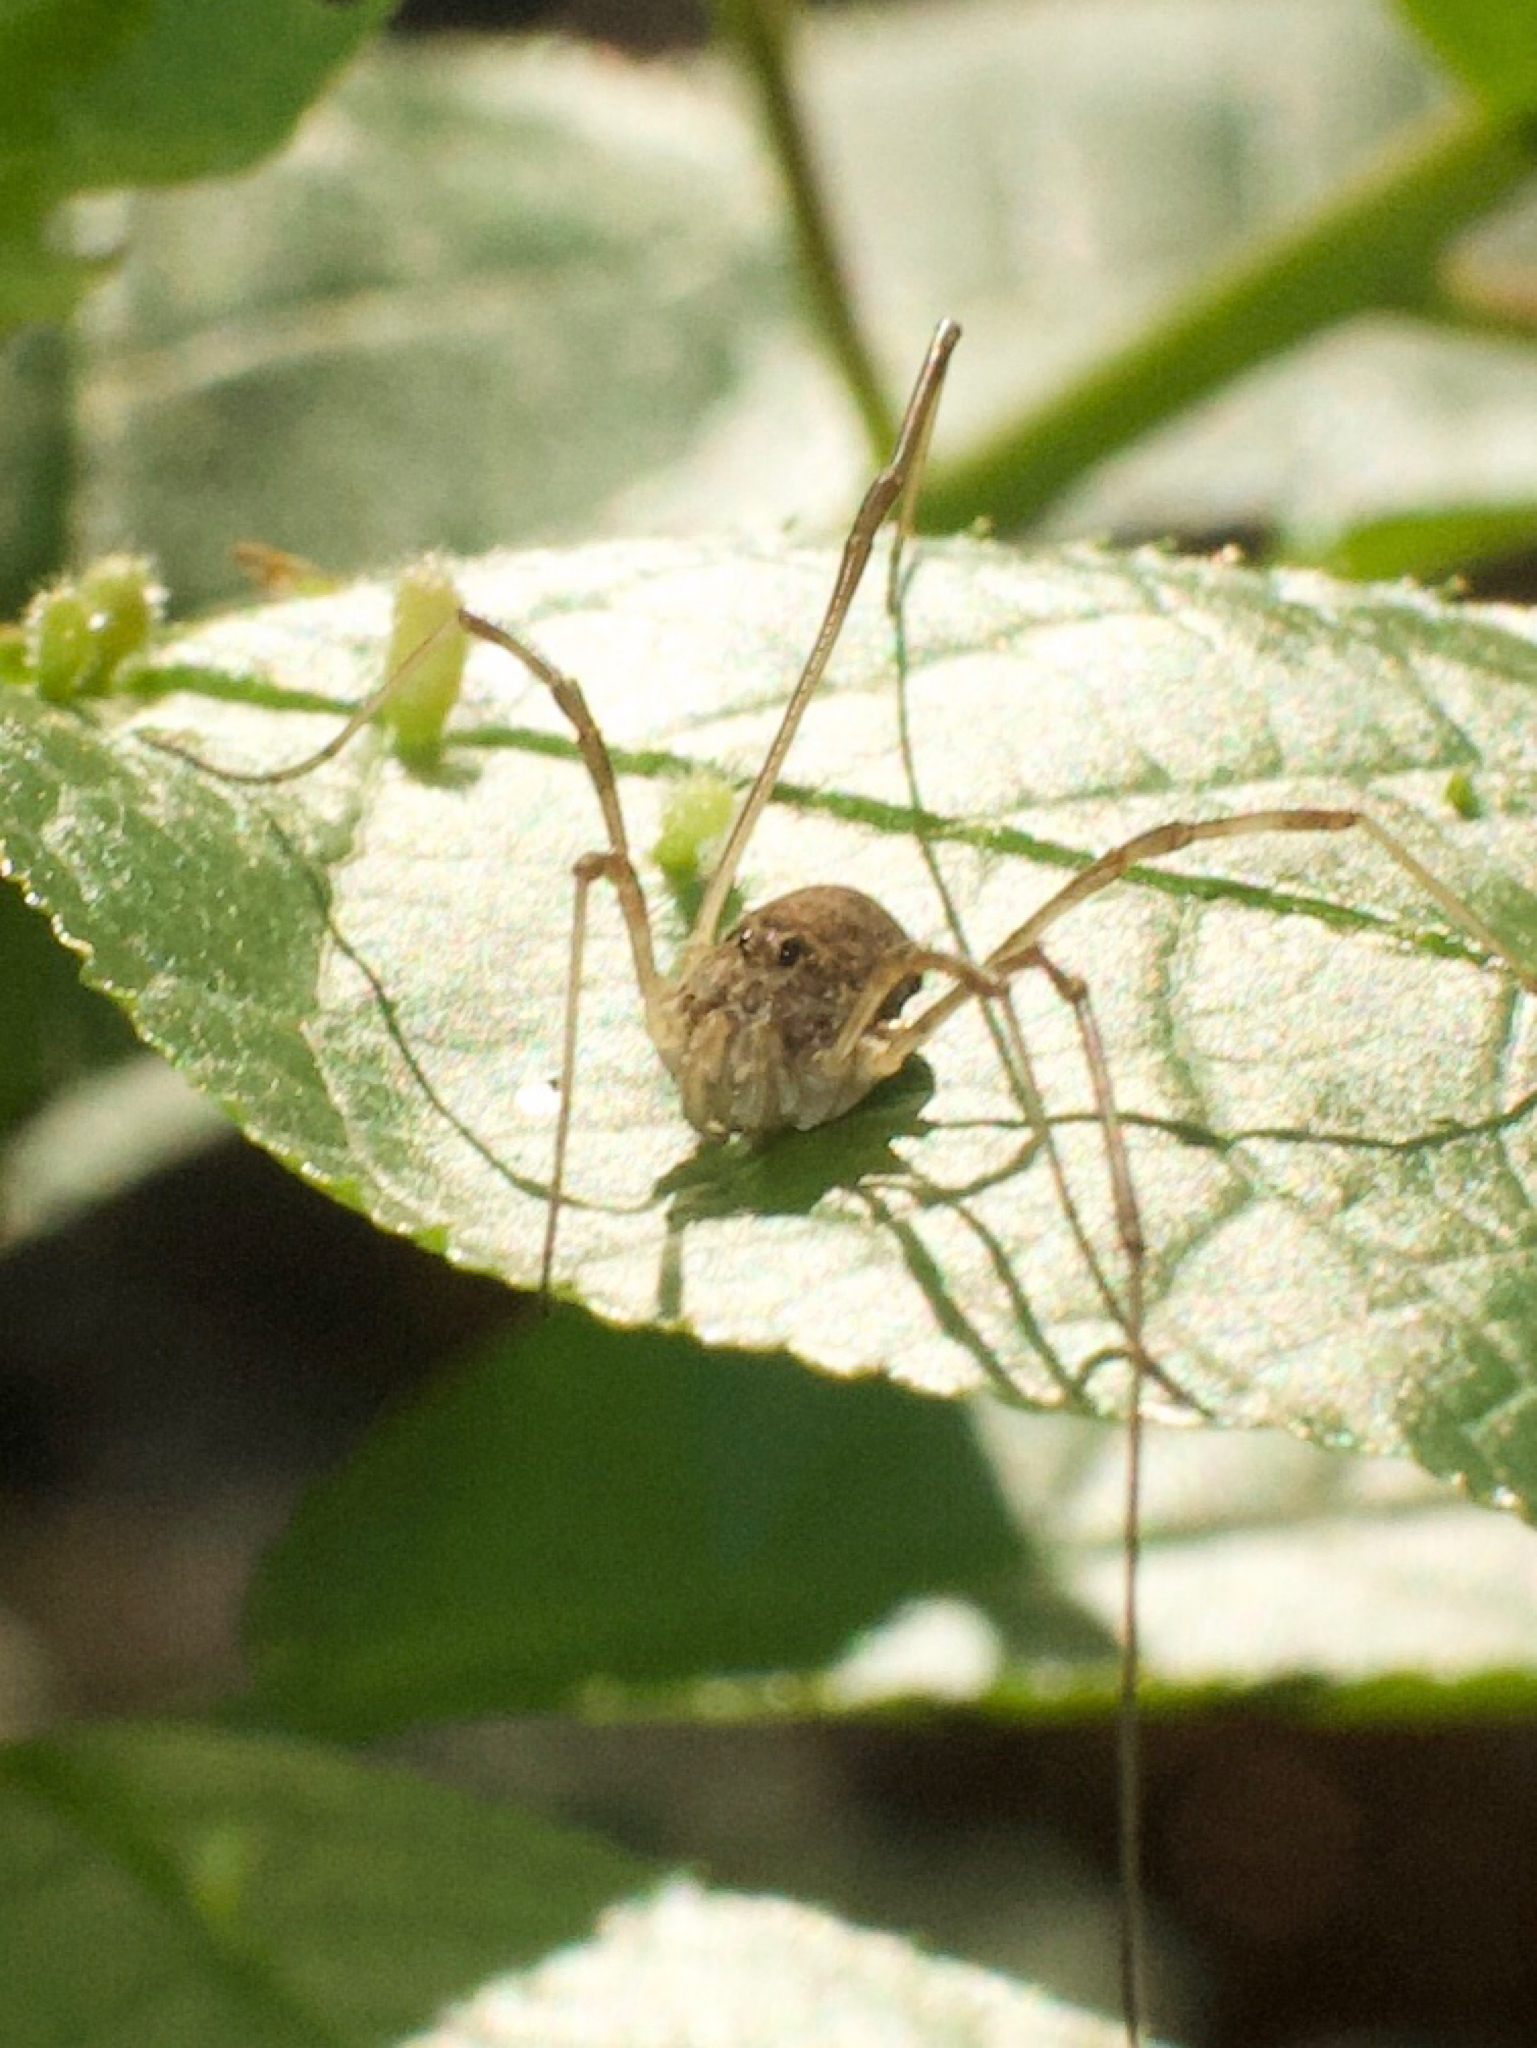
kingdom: Animalia
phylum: Arthropoda
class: Arachnida
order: Opiliones
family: Phalangiidae
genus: Rilaena
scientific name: Rilaena triangularis
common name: Spring harvestman
